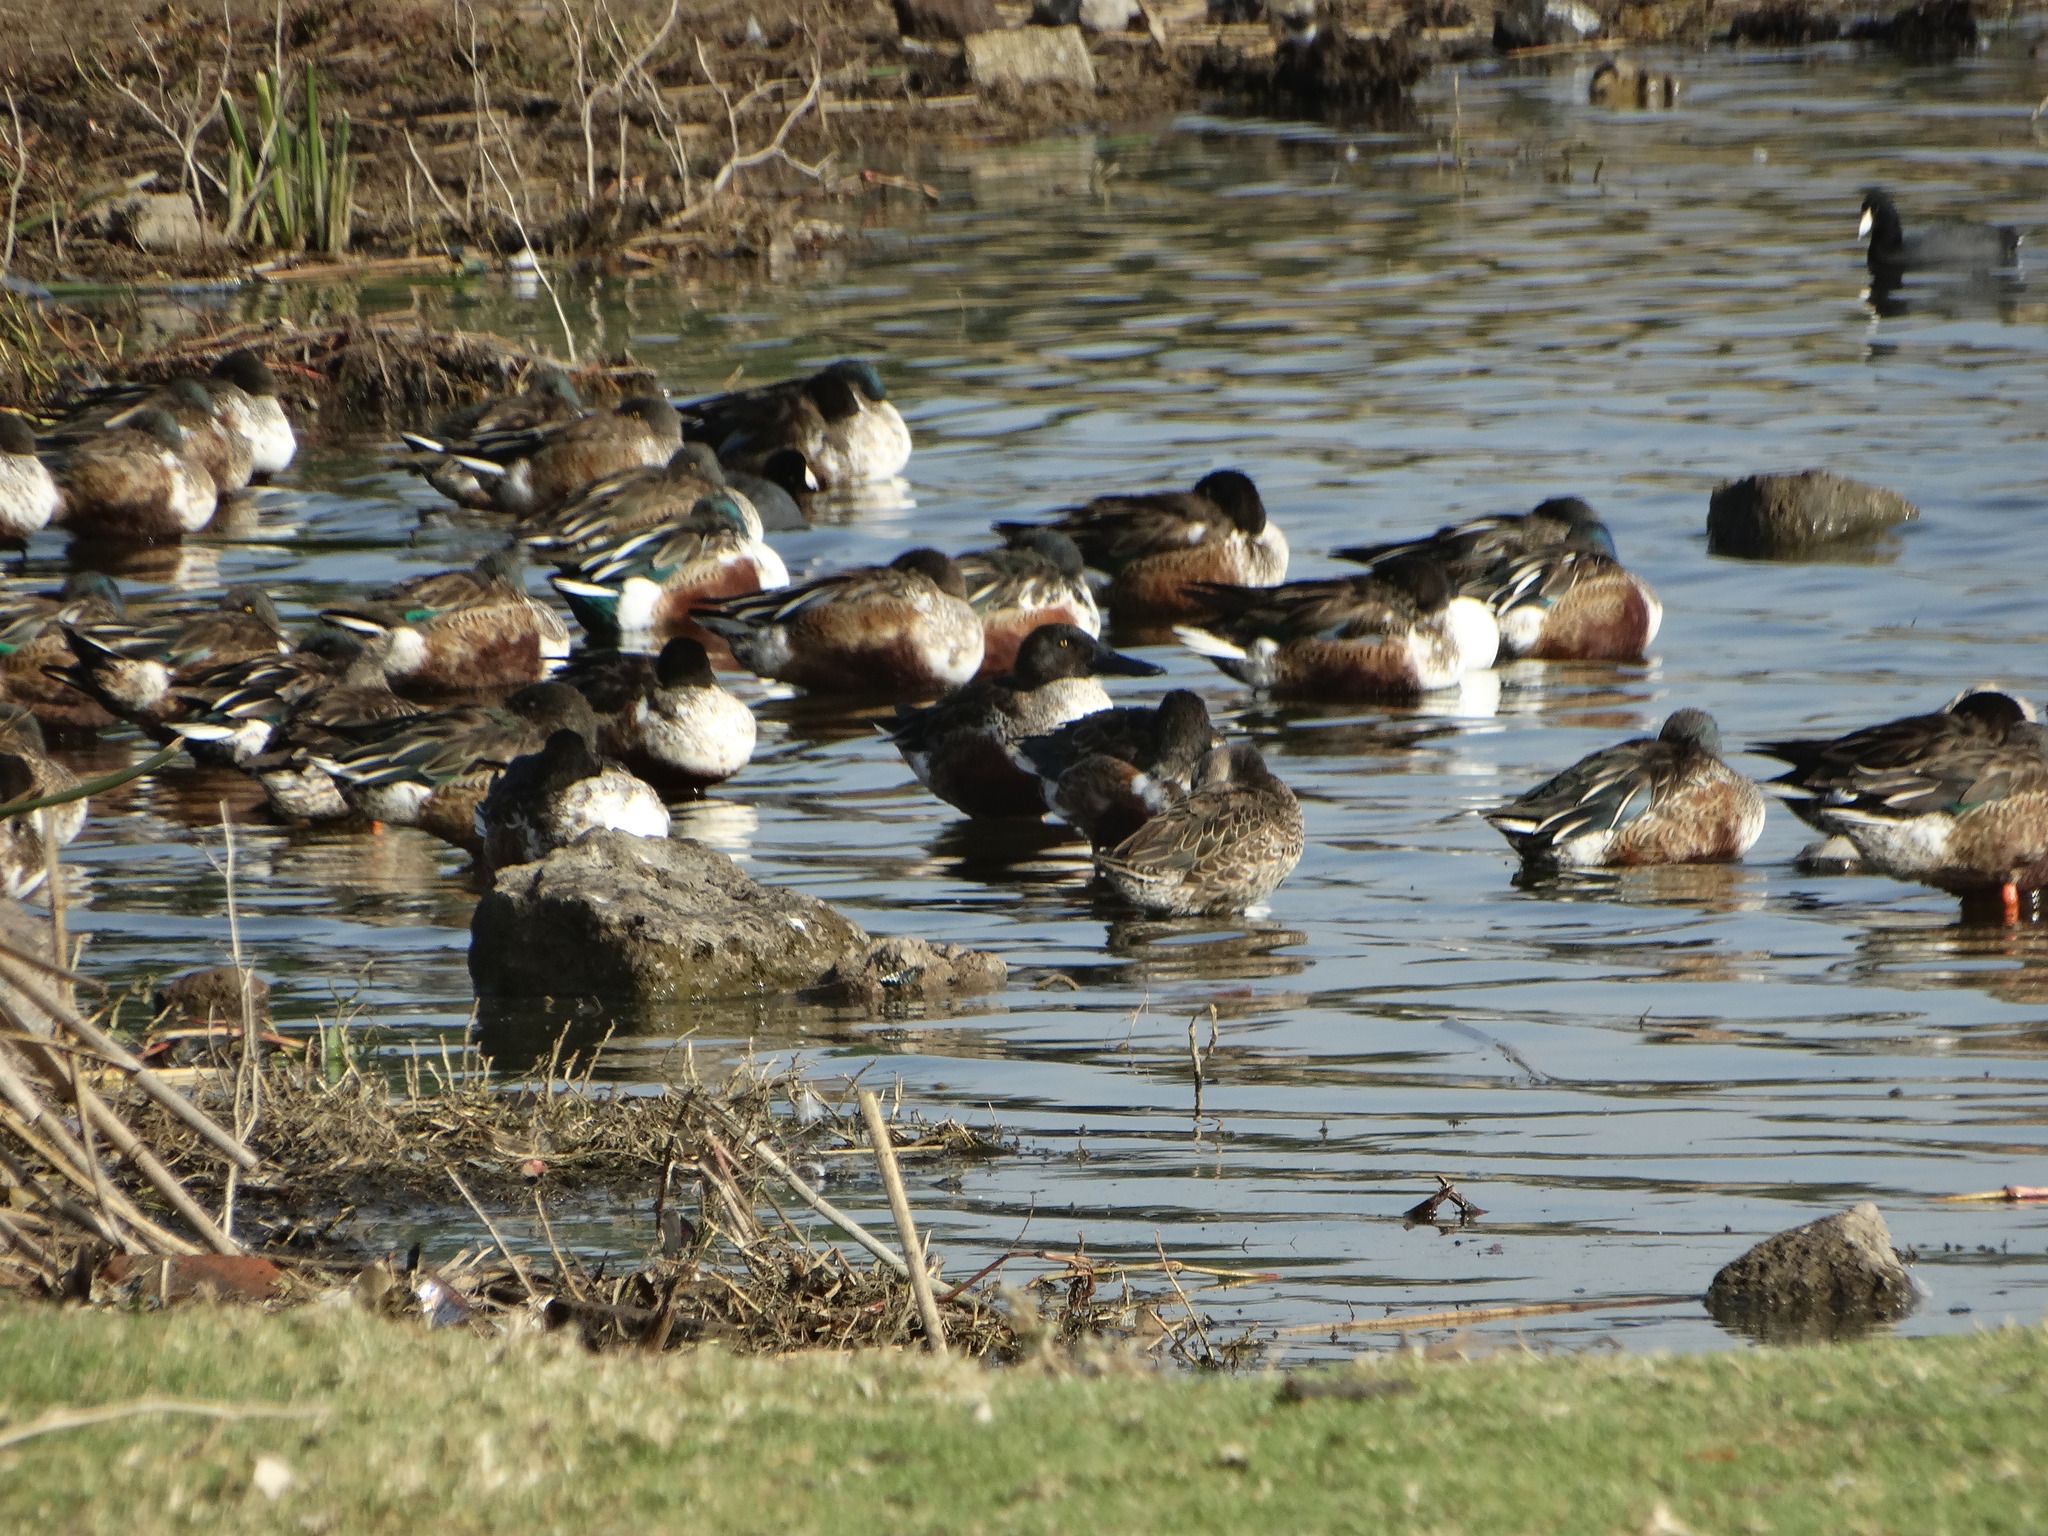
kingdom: Animalia
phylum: Chordata
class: Aves
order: Anseriformes
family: Anatidae
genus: Spatula
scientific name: Spatula clypeata
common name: Northern shoveler
